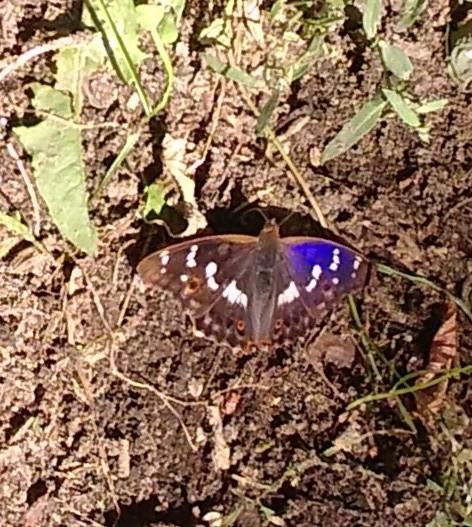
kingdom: Animalia
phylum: Arthropoda
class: Insecta
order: Lepidoptera
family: Nymphalidae
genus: Apatura
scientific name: Apatura ilia
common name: Lesser purple emperor
